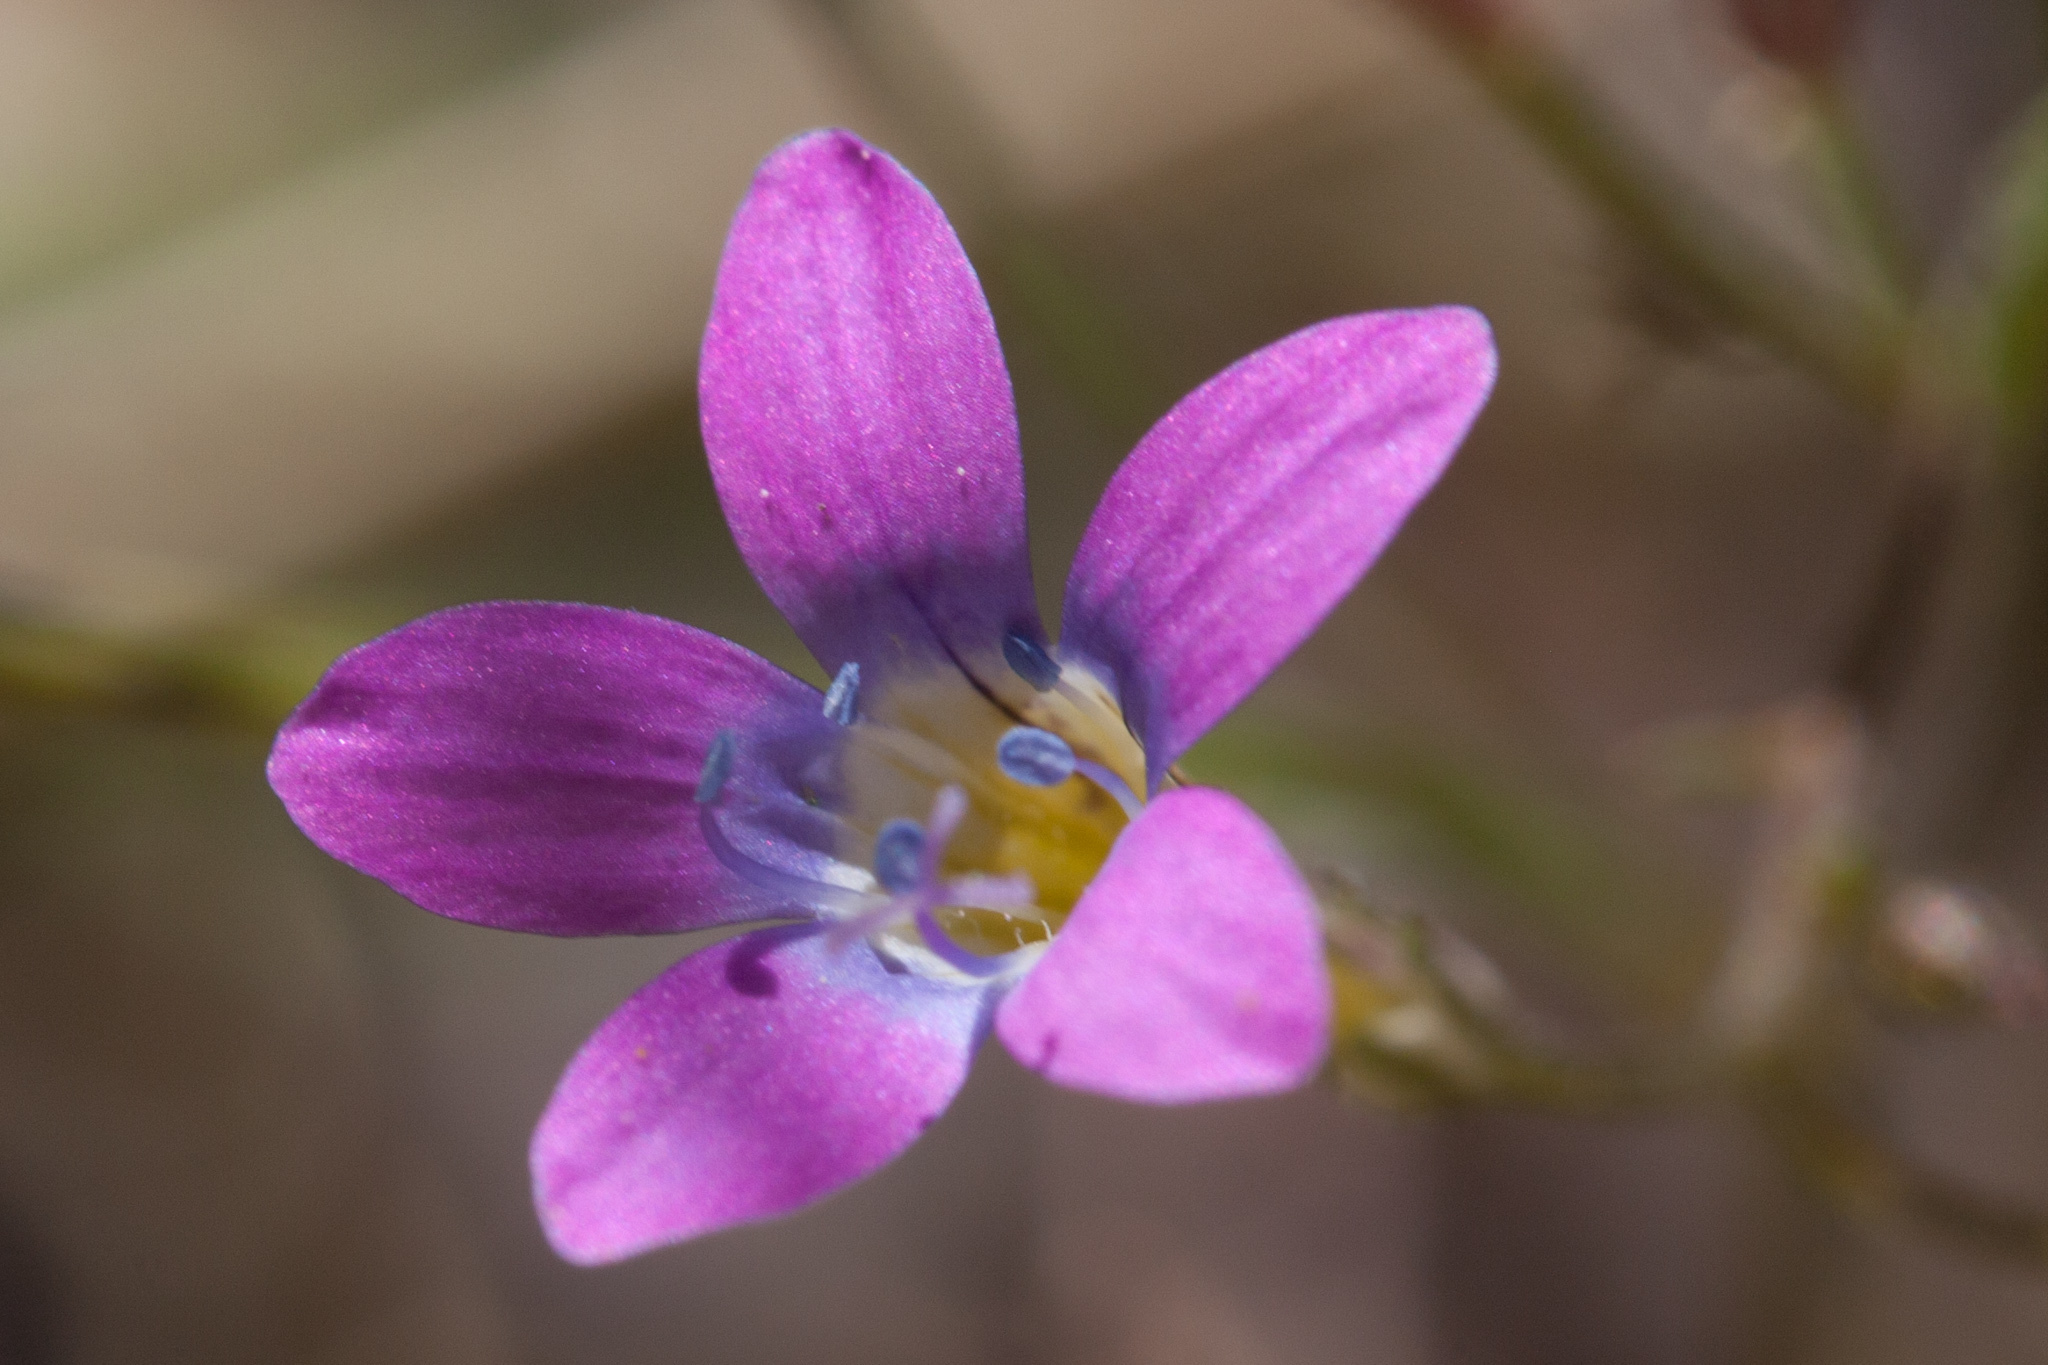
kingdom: Plantae
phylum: Tracheophyta
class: Magnoliopsida
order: Ericales
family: Polemoniaceae
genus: Navarretia
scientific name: Navarretia leptalea
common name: Bridges' pincushionplant
